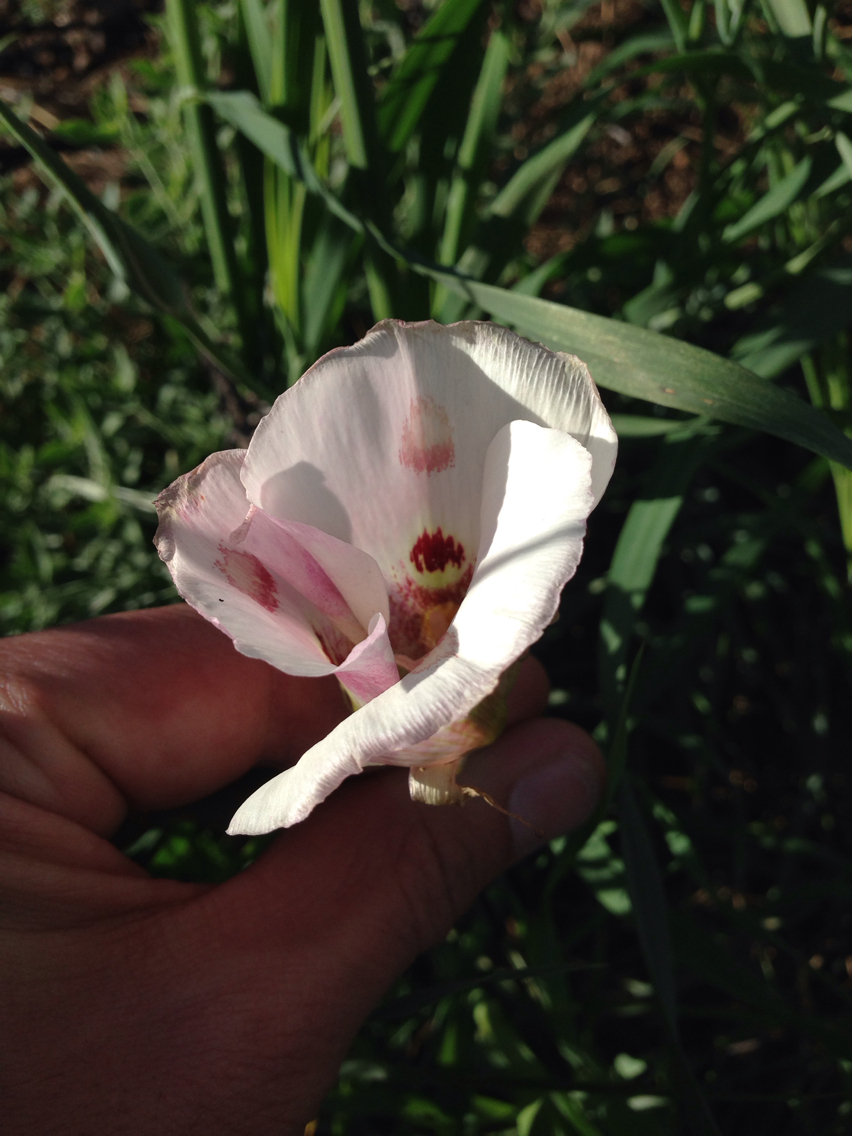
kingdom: Plantae
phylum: Tracheophyta
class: Liliopsida
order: Liliales
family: Liliaceae
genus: Calochortus
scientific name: Calochortus venustus
